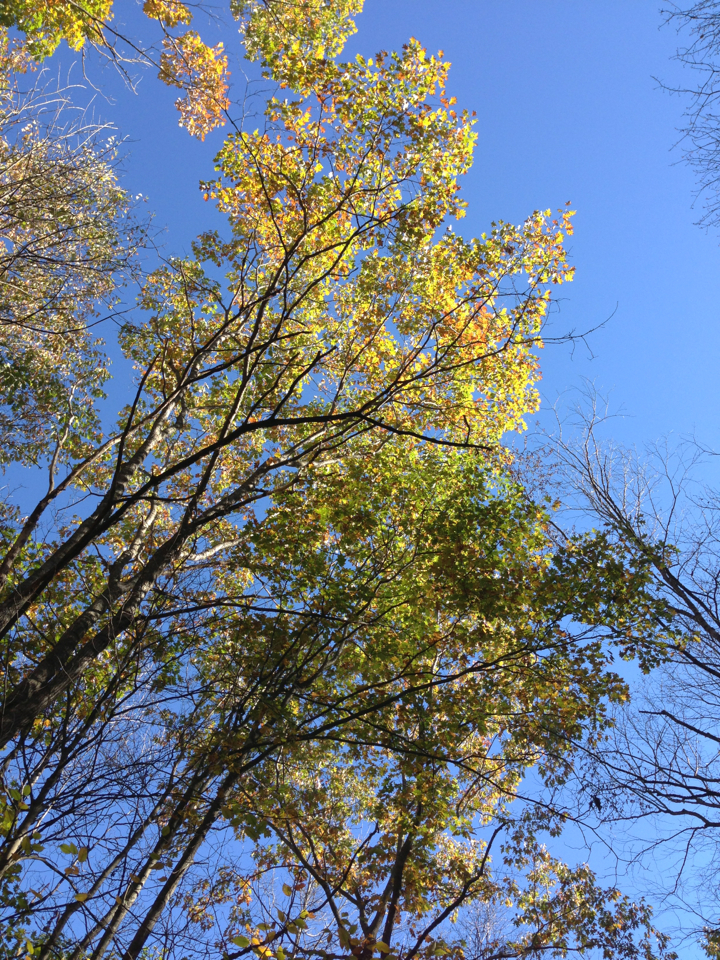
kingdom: Plantae
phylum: Tracheophyta
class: Magnoliopsida
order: Fagales
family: Fagaceae
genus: Quercus
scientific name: Quercus rubra
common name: Red oak
